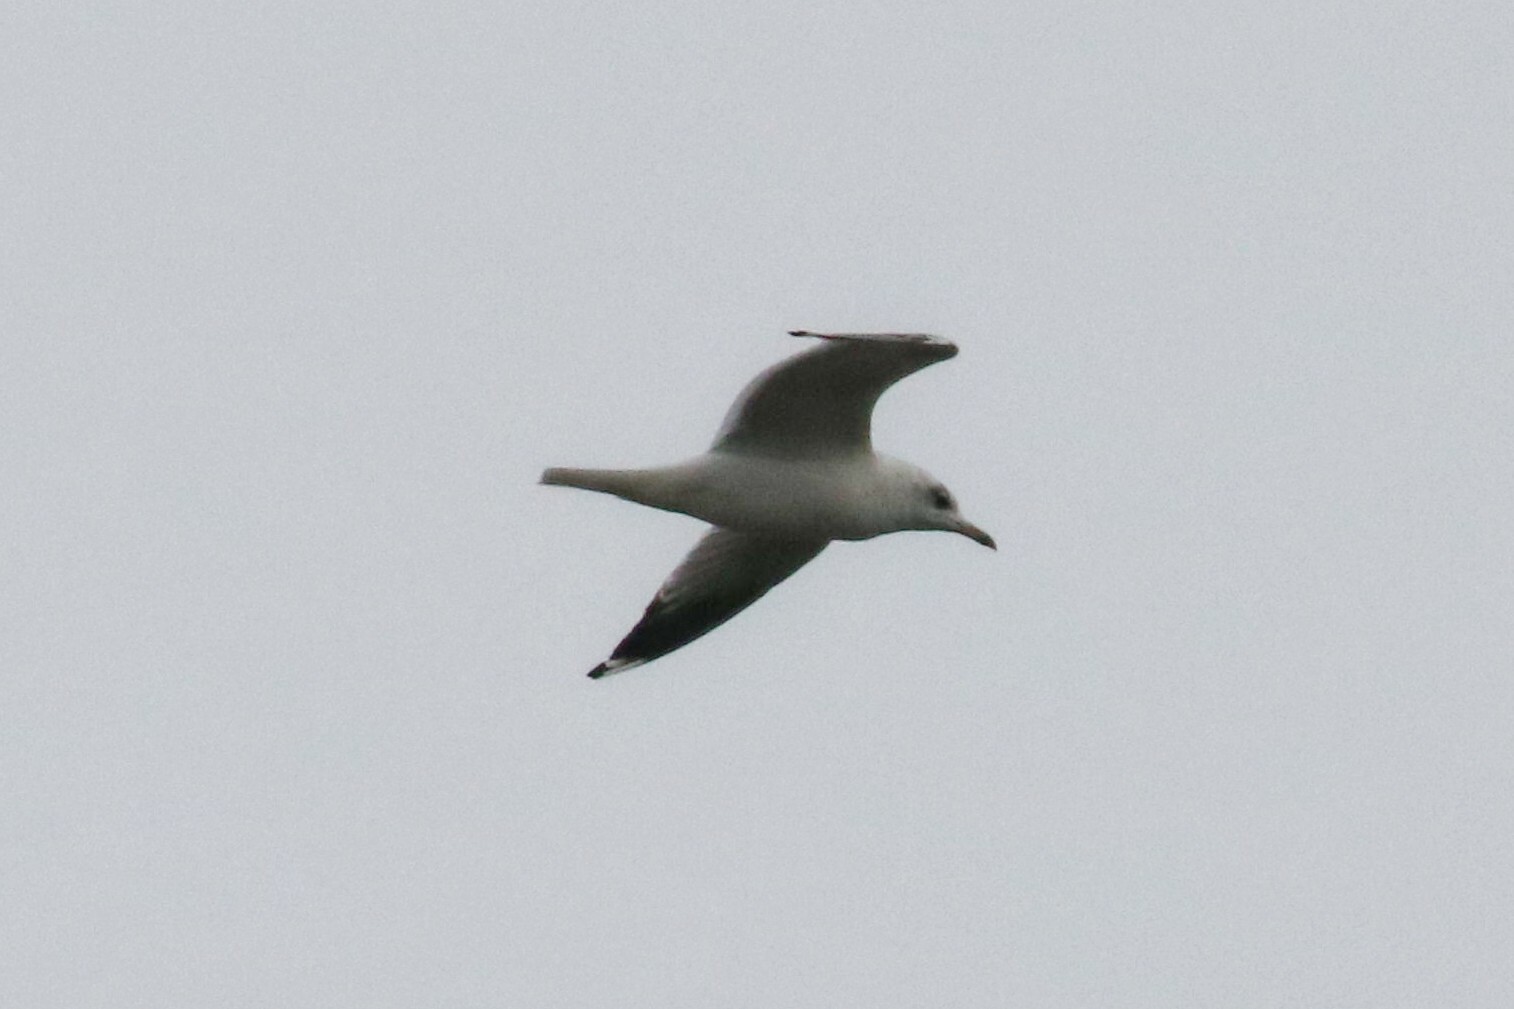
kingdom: Animalia
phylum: Chordata
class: Aves
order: Charadriiformes
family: Laridae
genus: Larus
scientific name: Larus canus
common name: Mew gull
